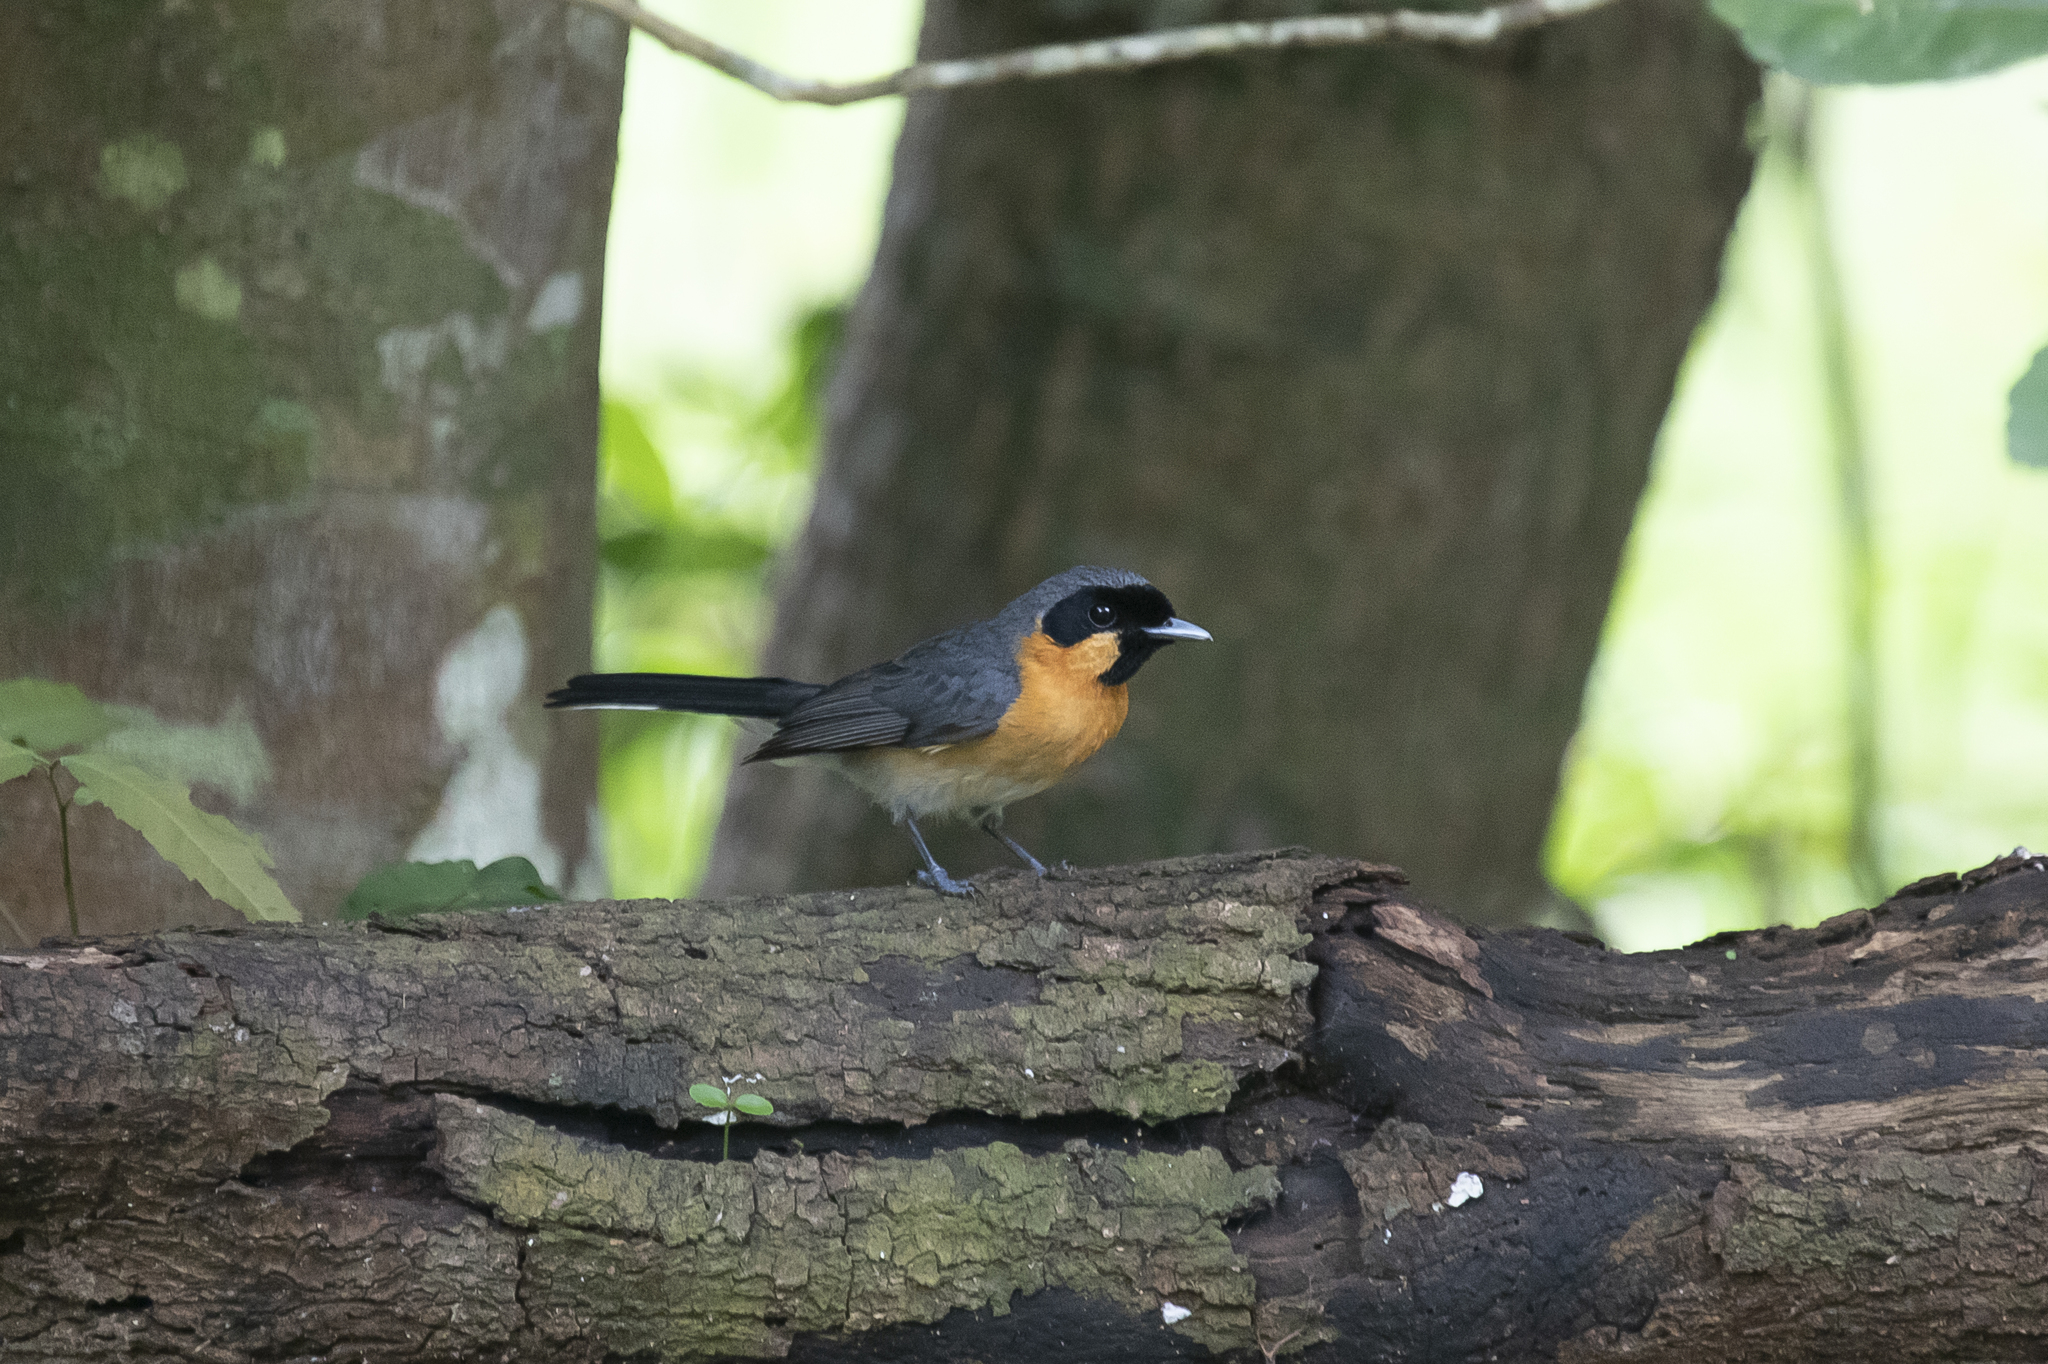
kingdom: Animalia
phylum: Chordata
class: Aves
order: Passeriformes
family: Monarchidae
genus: Symposiachrus
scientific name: Symposiachrus trivirgatus
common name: Spectacled monarch
